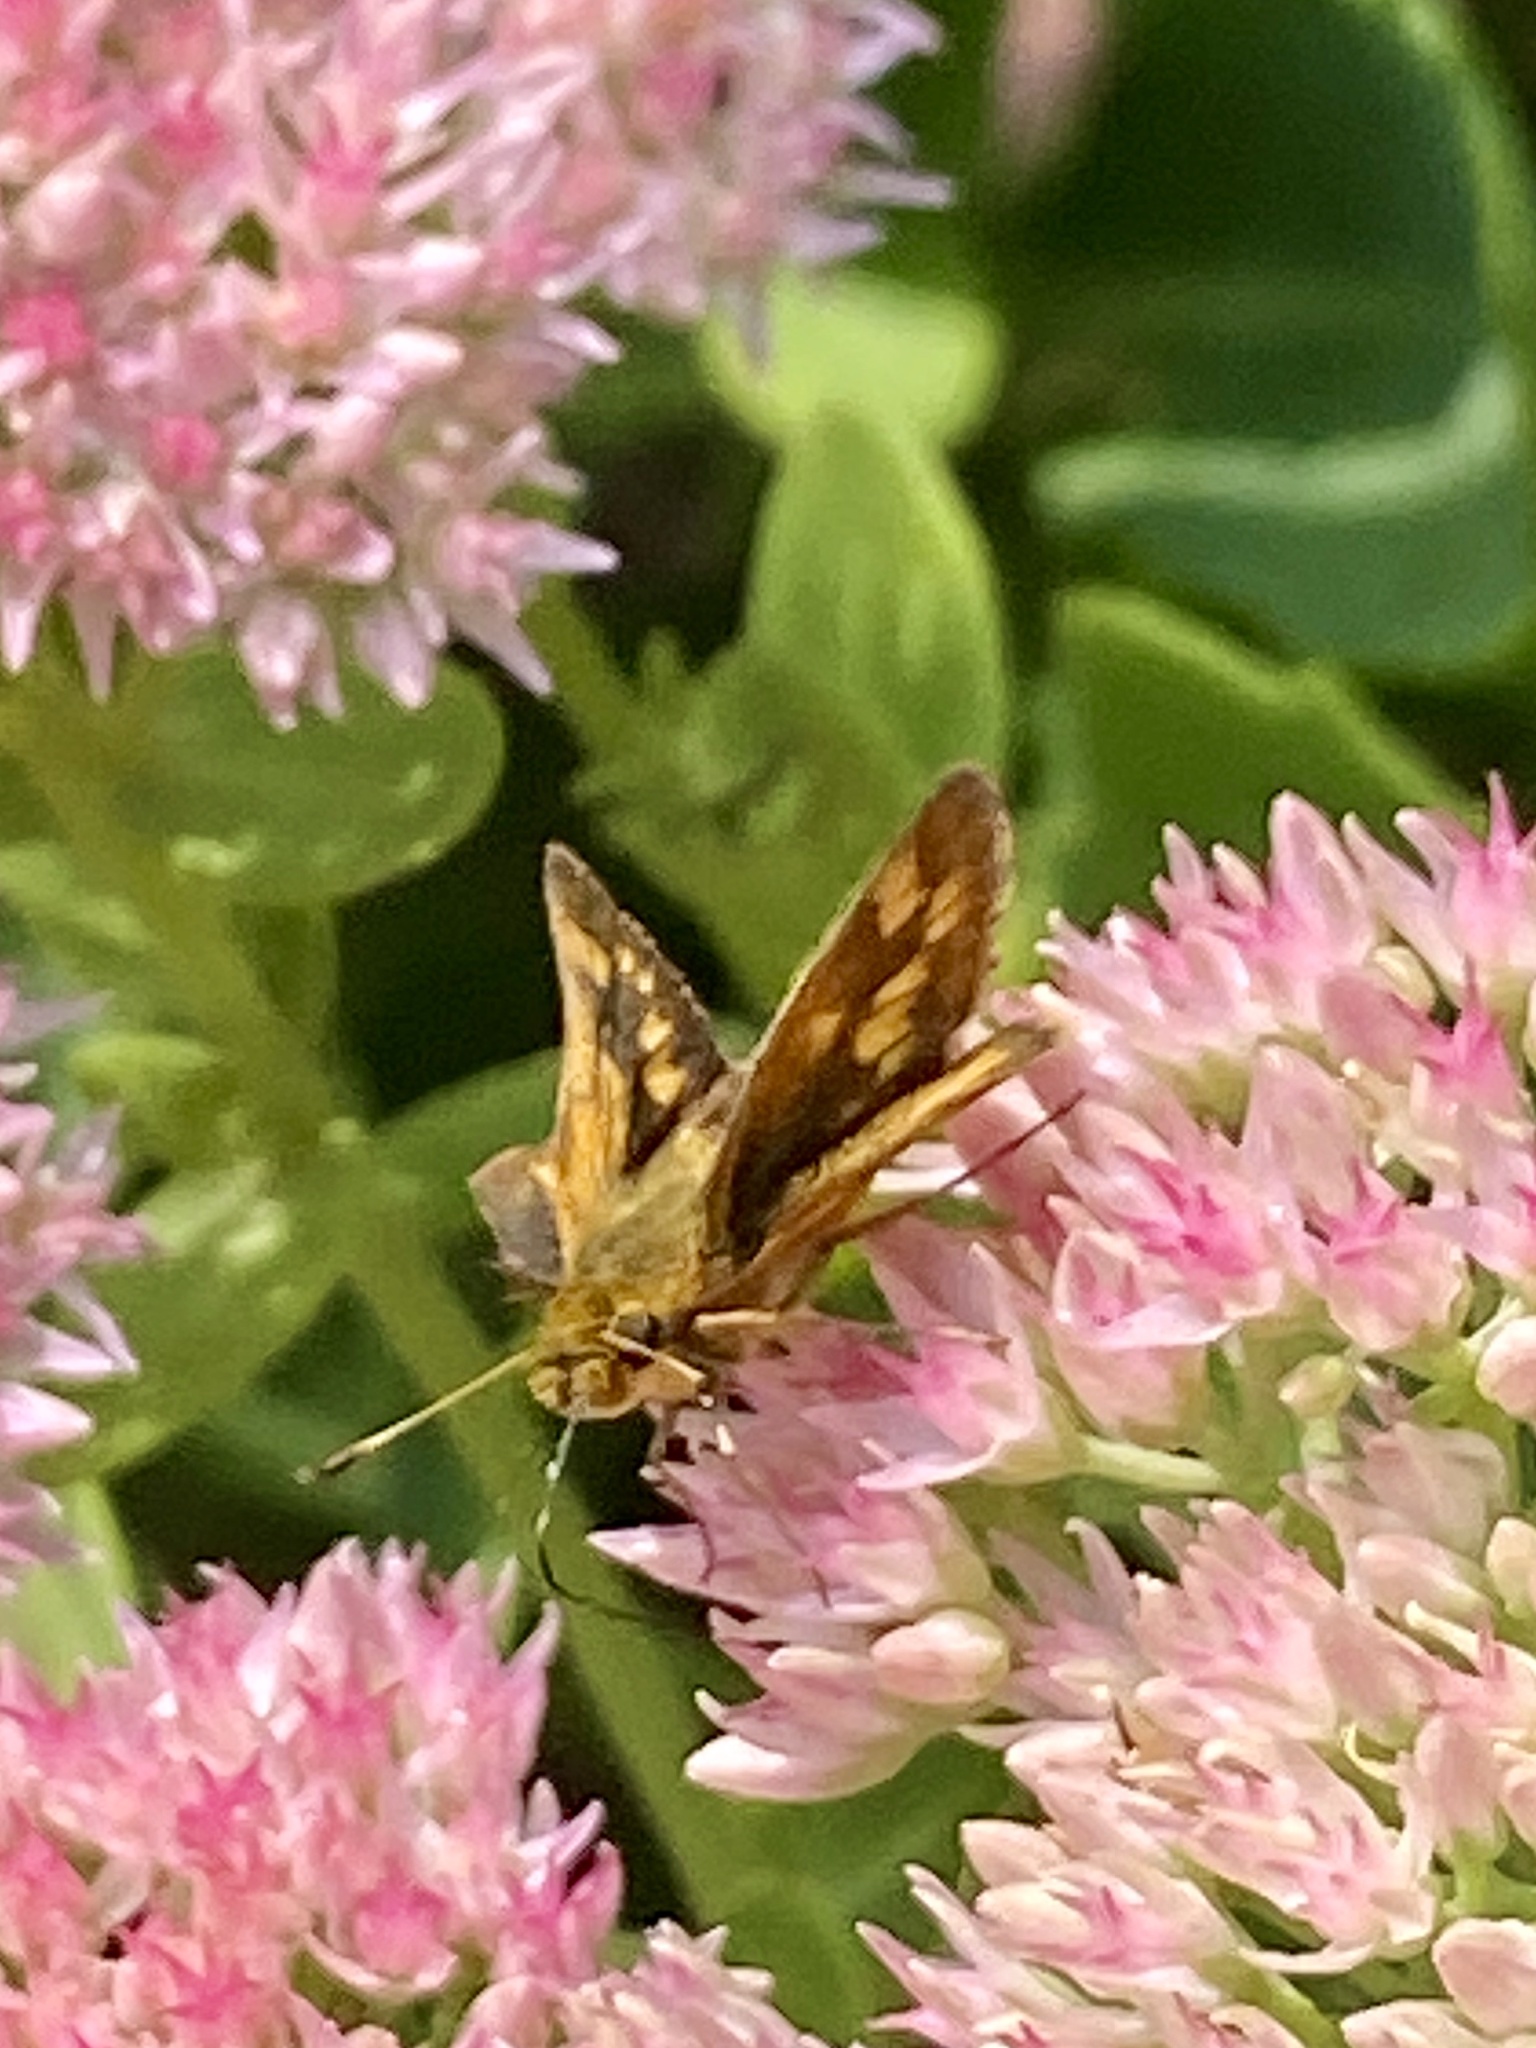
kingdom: Animalia
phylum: Arthropoda
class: Insecta
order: Lepidoptera
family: Hesperiidae
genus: Polites
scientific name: Polites coras
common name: Peck's skipper
